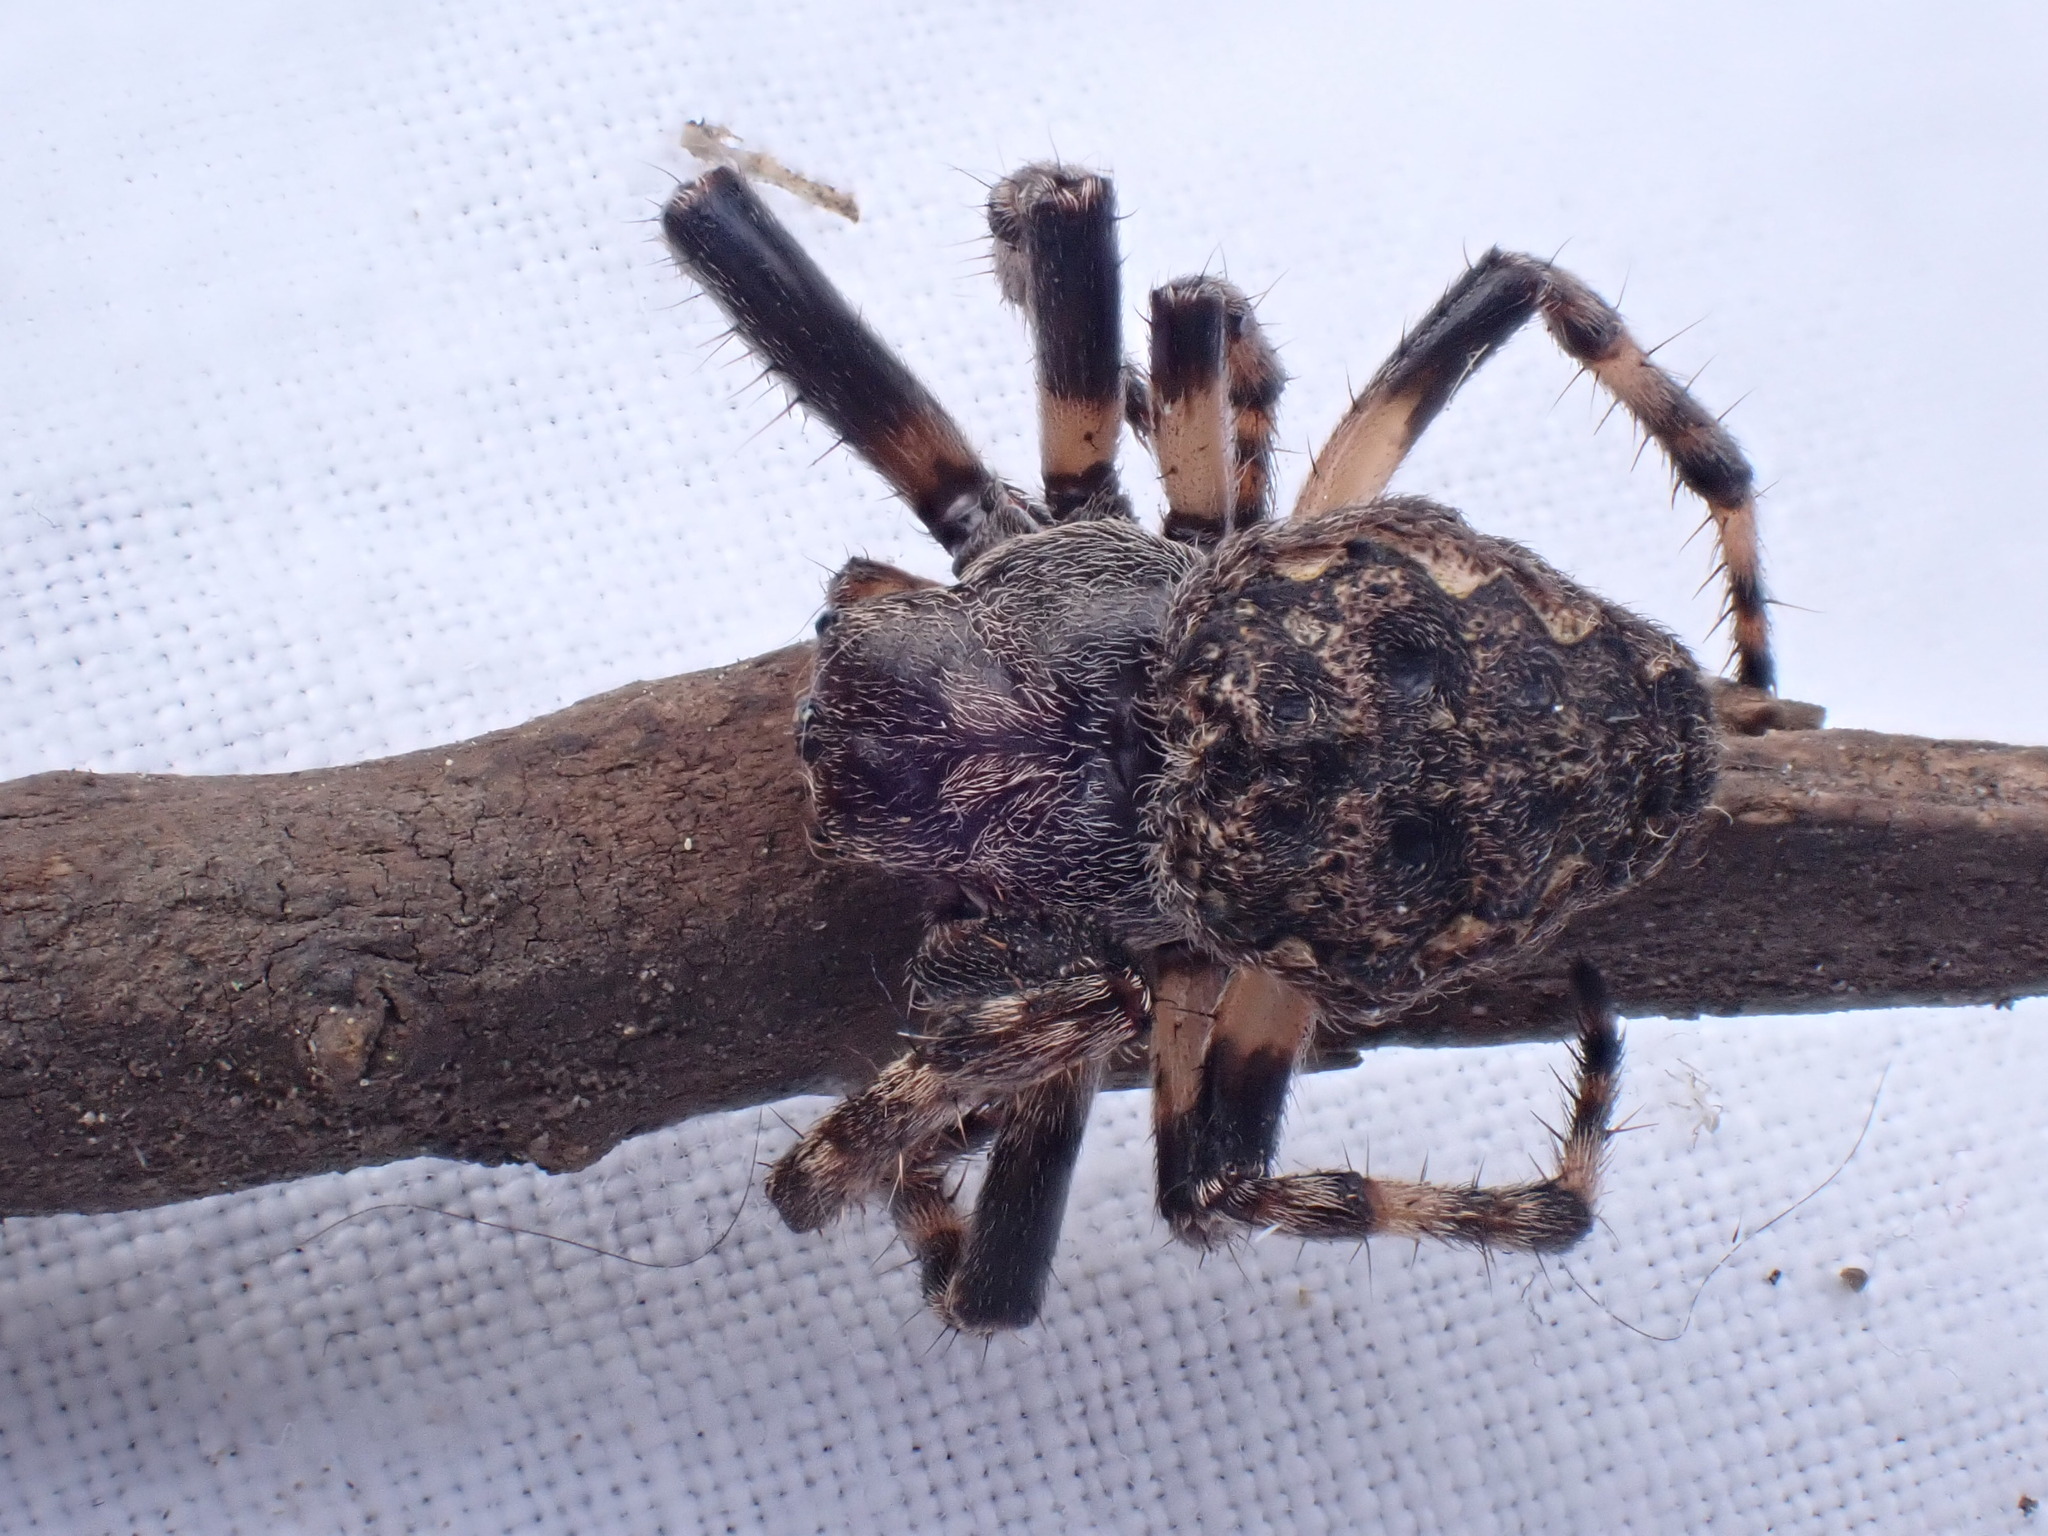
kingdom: Animalia
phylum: Arthropoda
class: Arachnida
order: Araneae
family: Araneidae
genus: Nuctenea
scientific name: Nuctenea umbratica
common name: Toad spider
